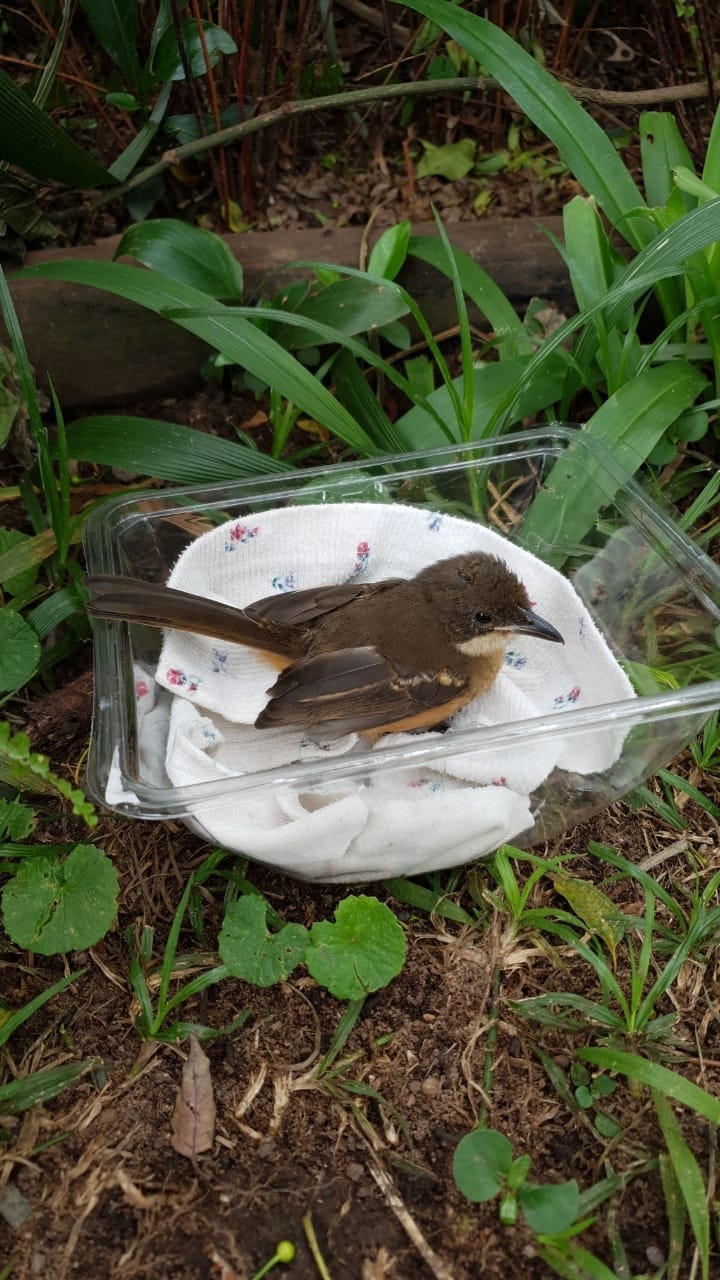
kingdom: Animalia
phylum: Chordata
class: Aves
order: Passeriformes
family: Malaconotidae
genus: Laniarius
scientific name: Laniarius ferrugineus
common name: Southern boubou
